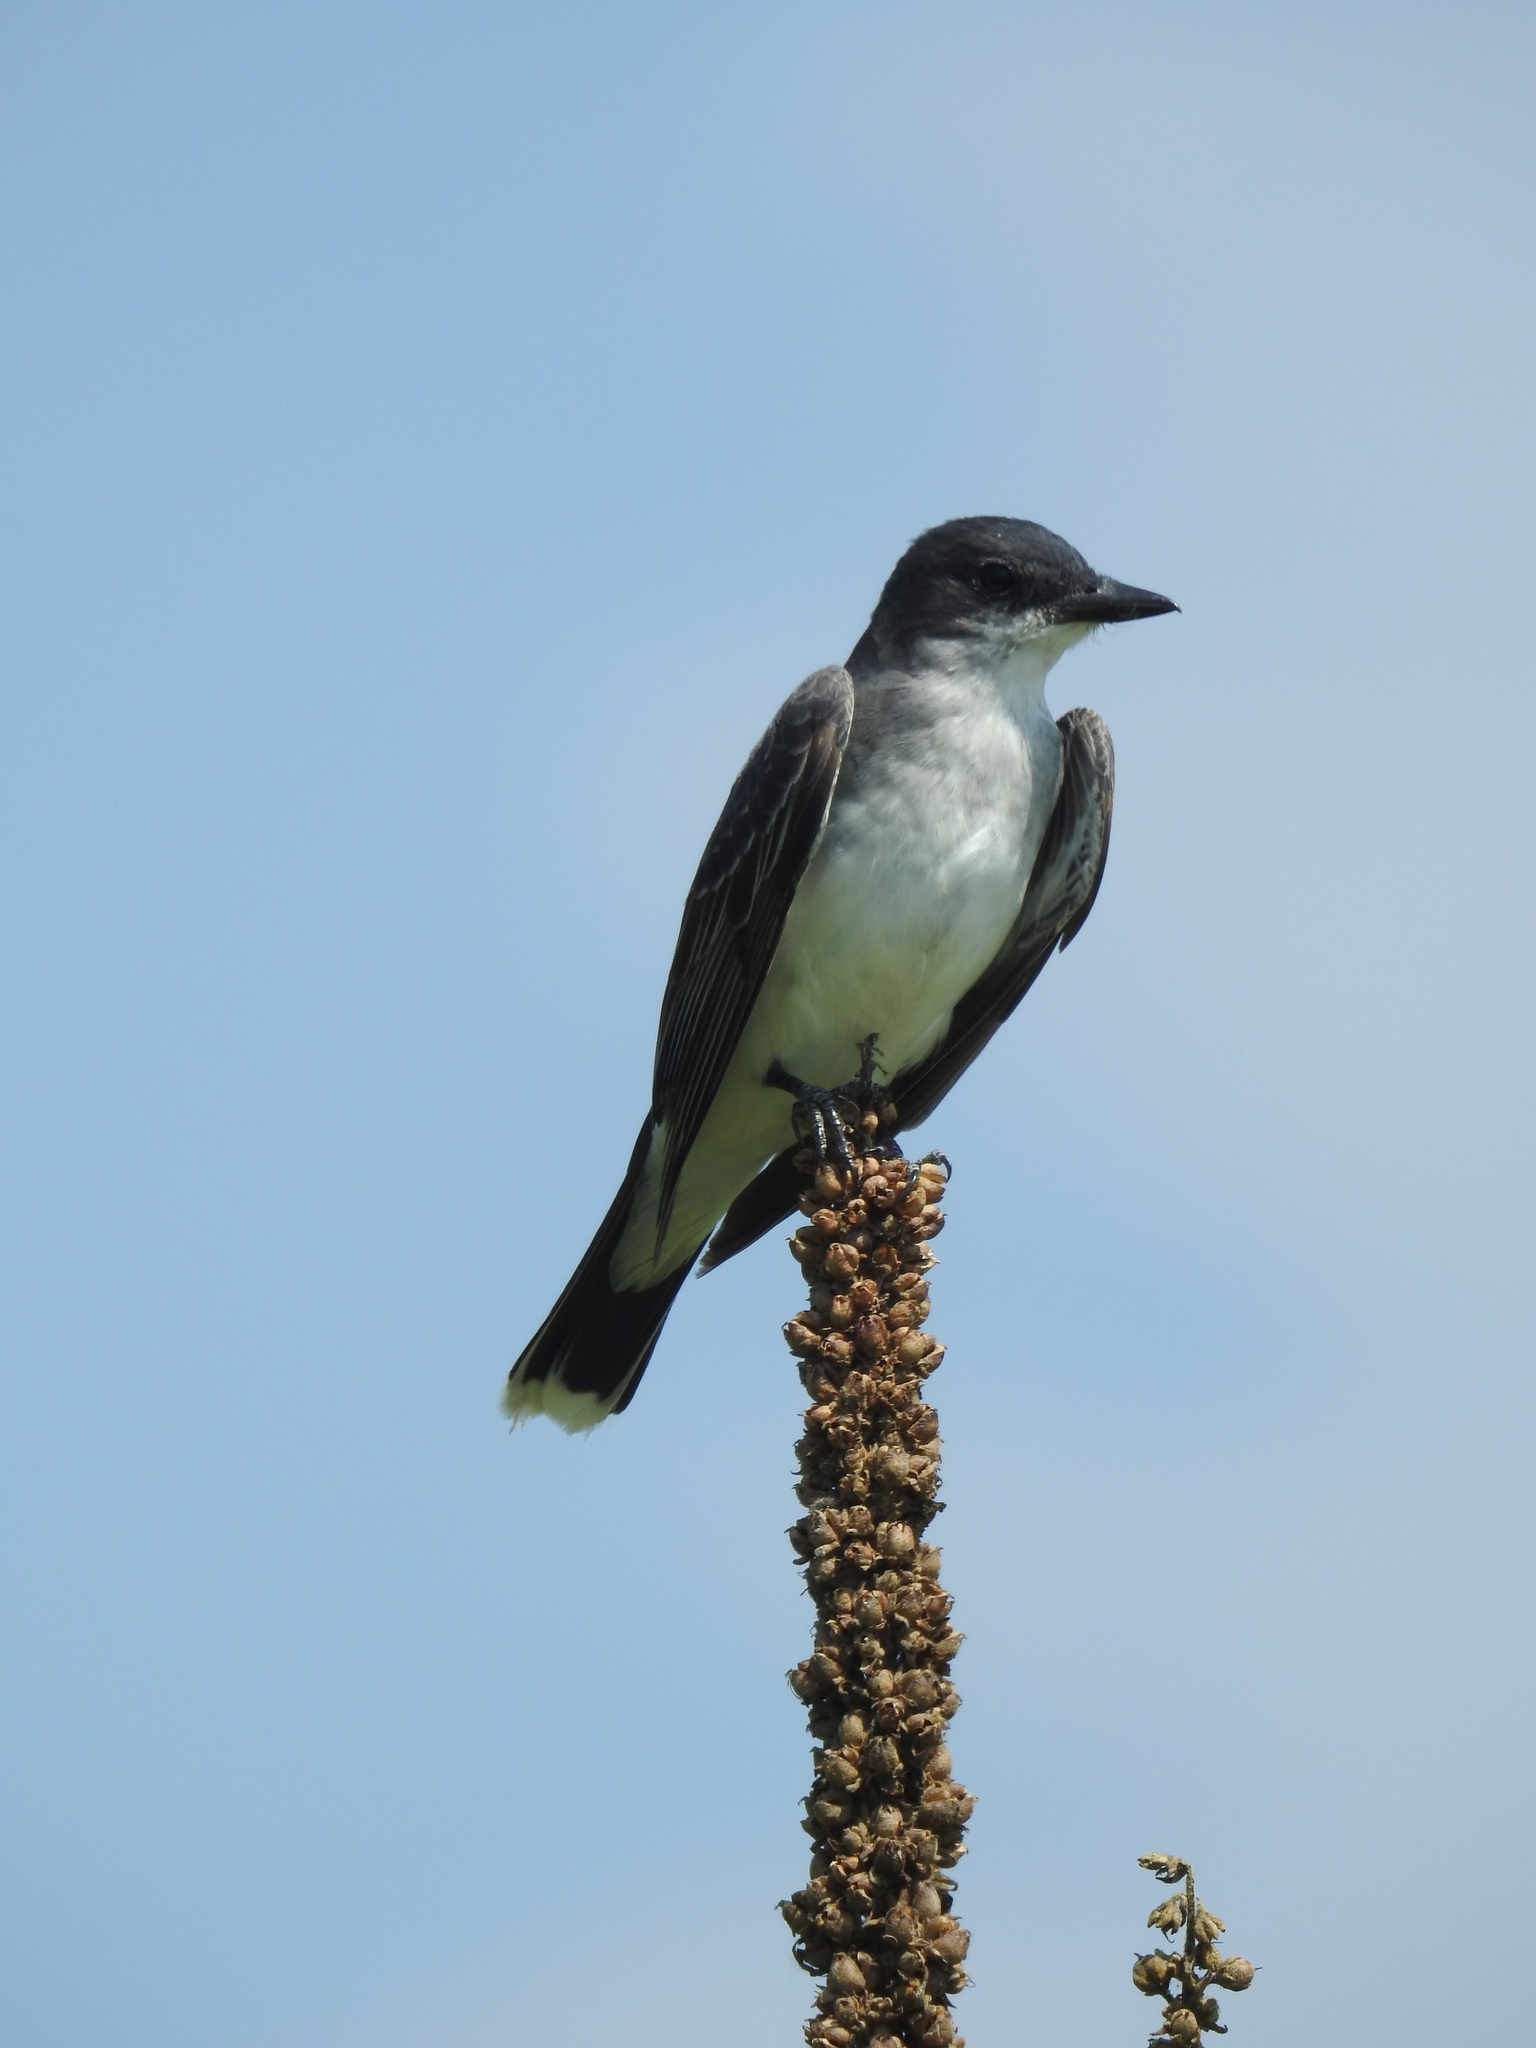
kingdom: Animalia
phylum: Chordata
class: Aves
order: Passeriformes
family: Tyrannidae
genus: Tyrannus
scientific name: Tyrannus tyrannus
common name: Eastern kingbird
